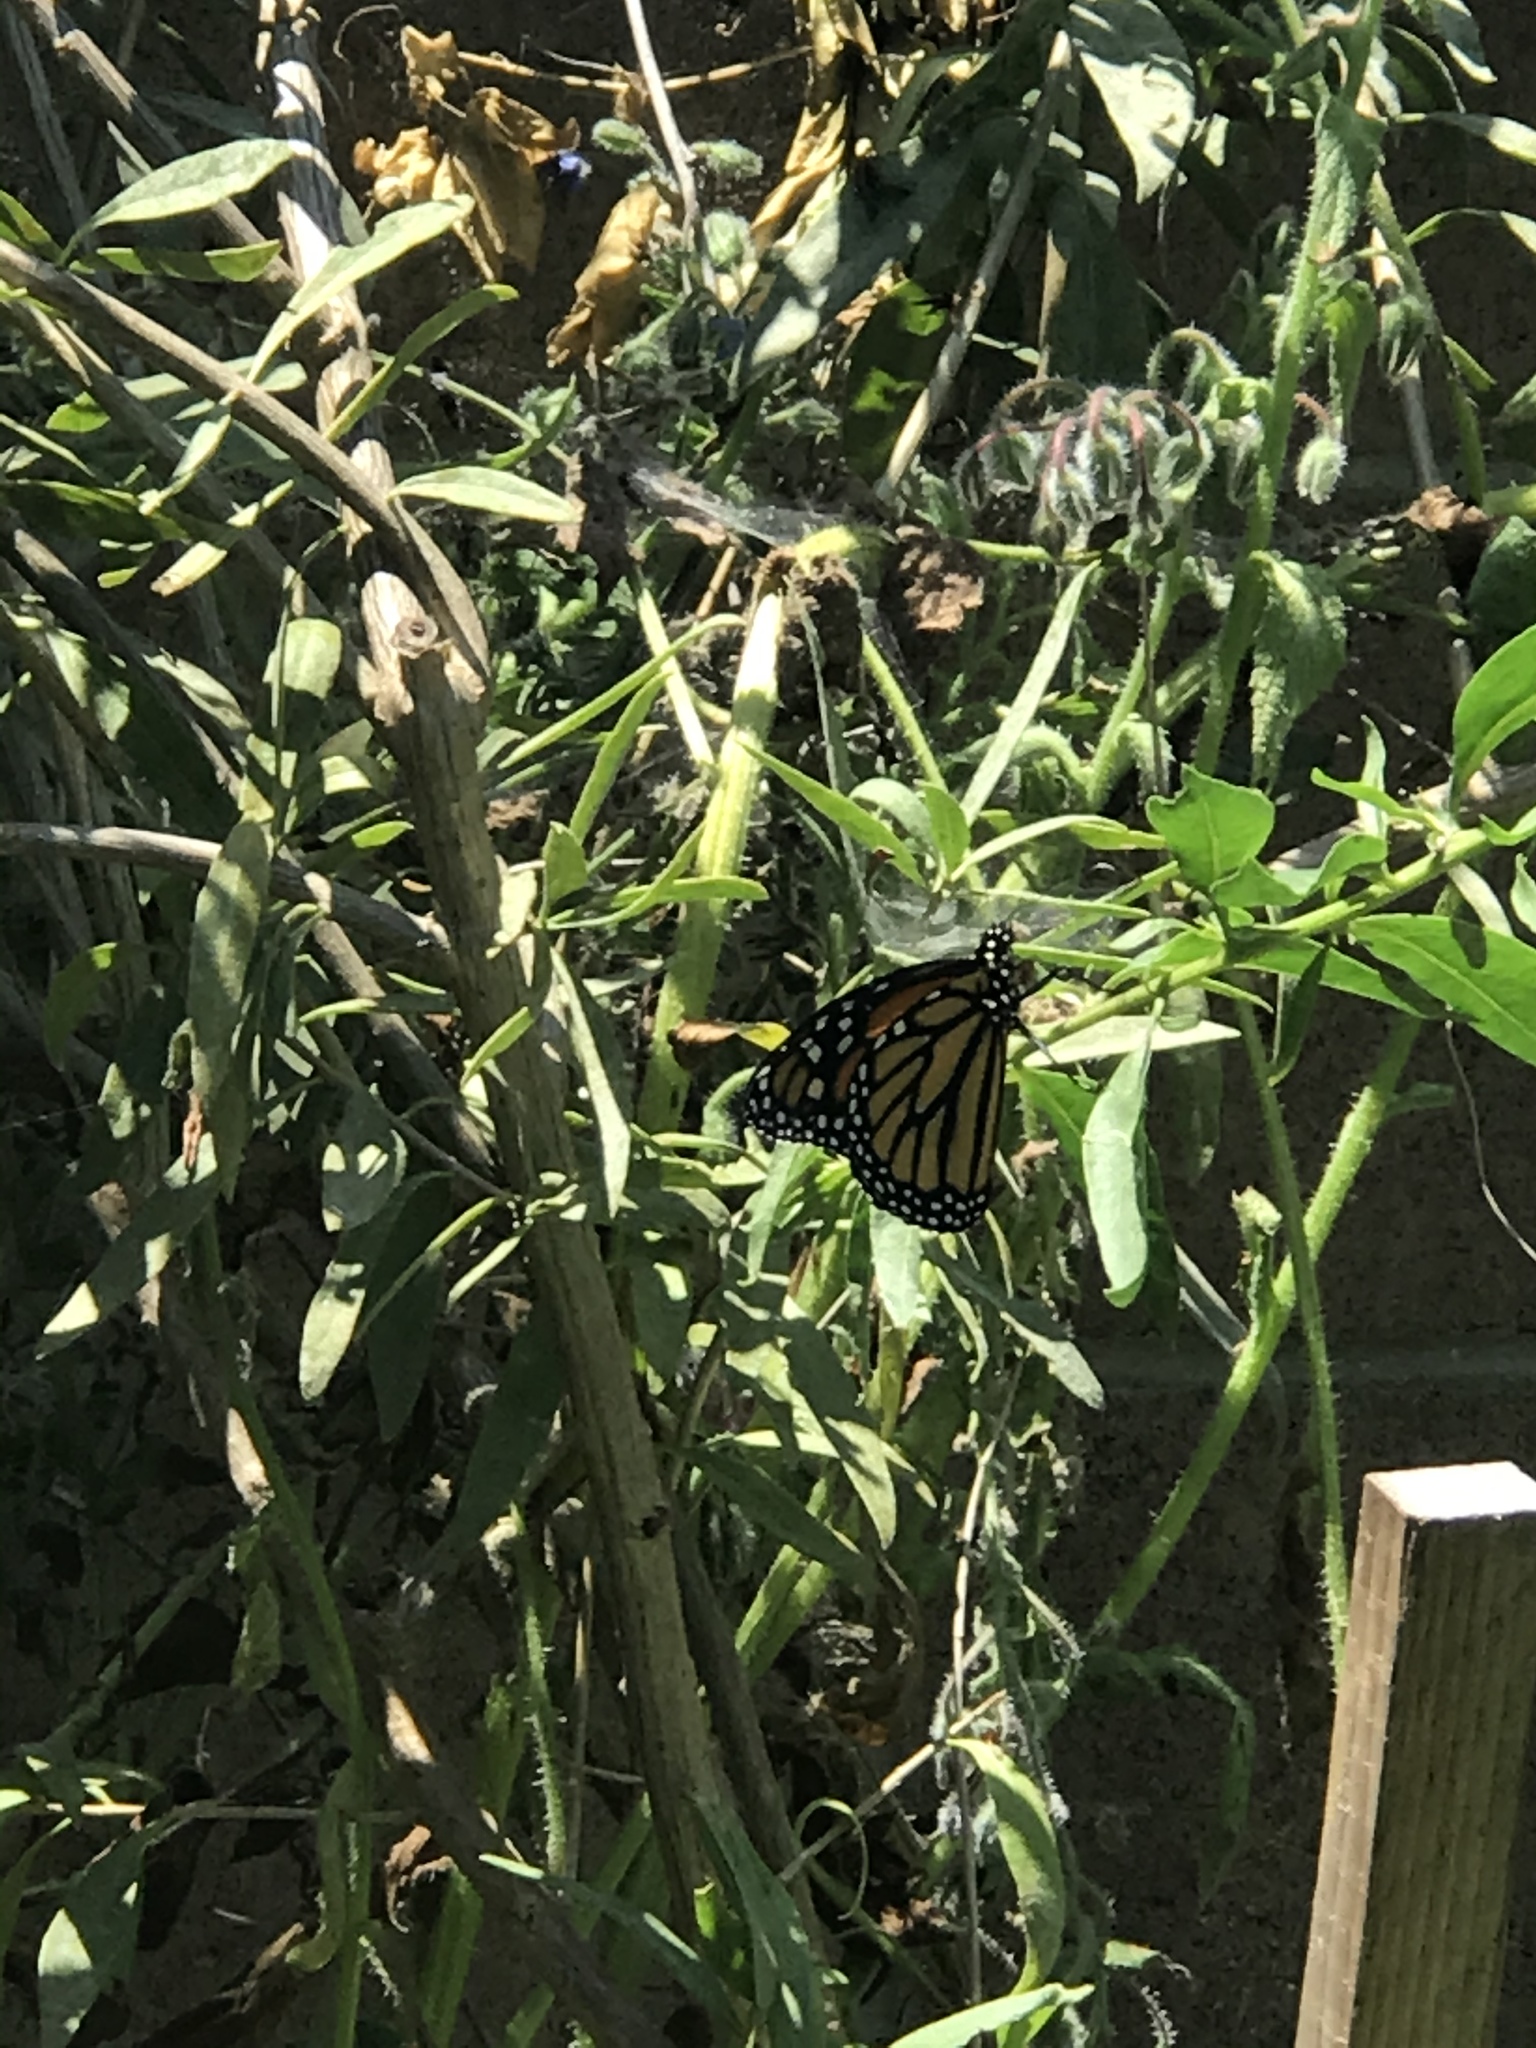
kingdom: Animalia
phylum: Arthropoda
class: Insecta
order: Lepidoptera
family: Nymphalidae
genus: Danaus
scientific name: Danaus plexippus
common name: Monarch
